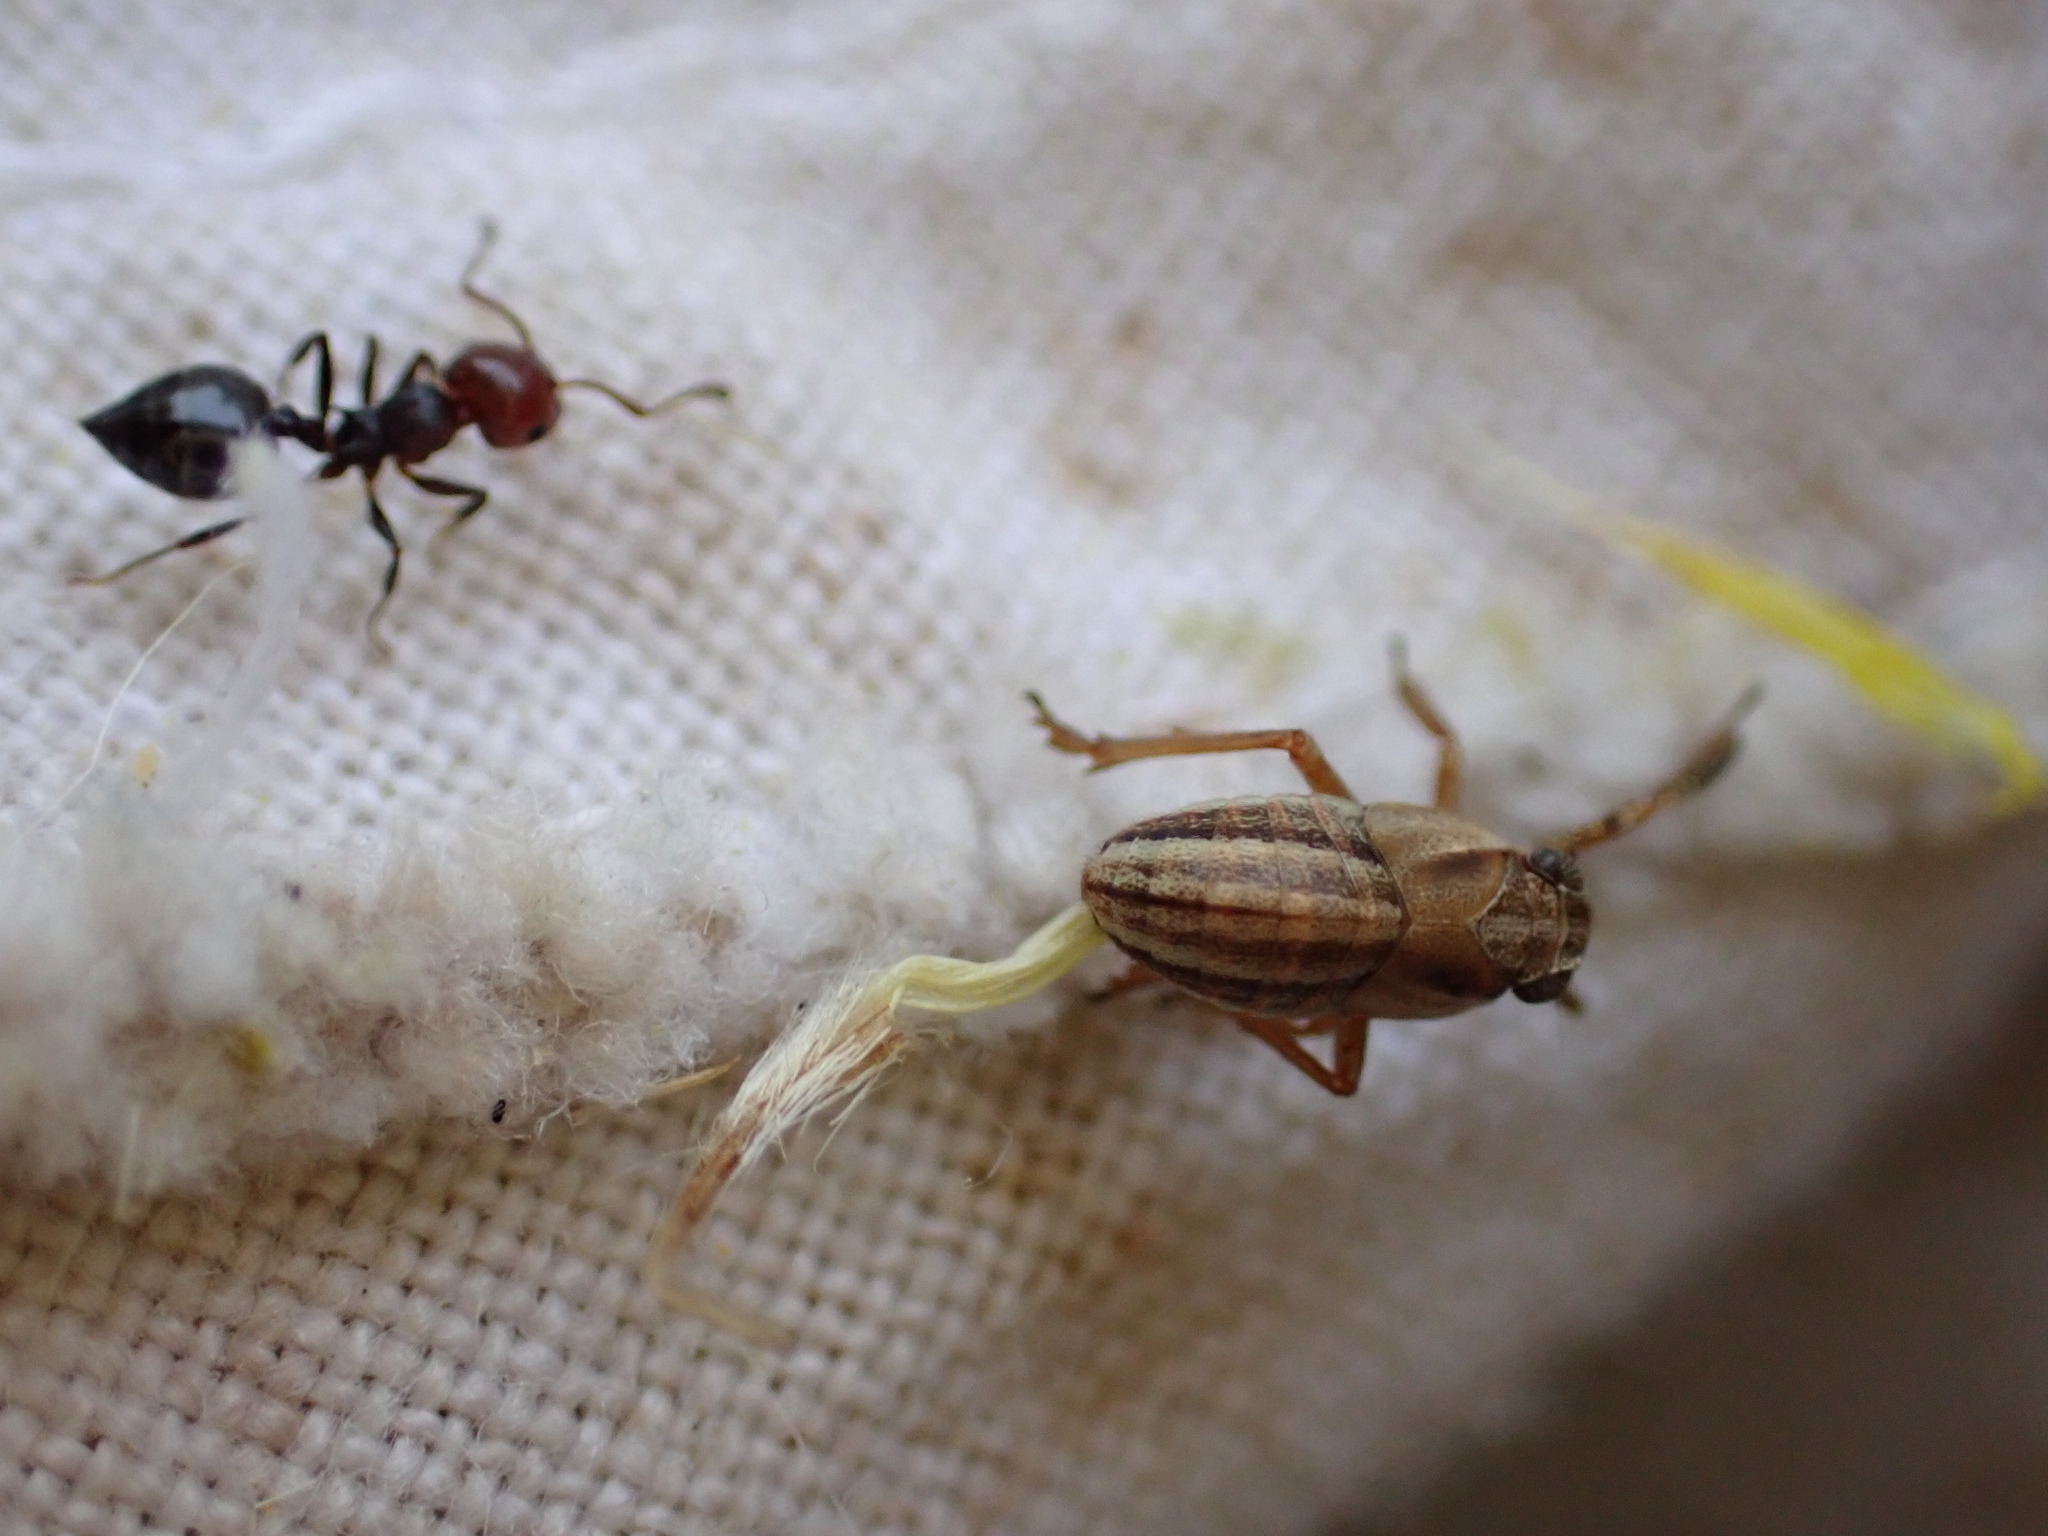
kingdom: Animalia
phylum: Arthropoda
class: Insecta
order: Hemiptera
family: Caliscelidae
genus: Caliscelis
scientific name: Caliscelis bonellii
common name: Planthopper
